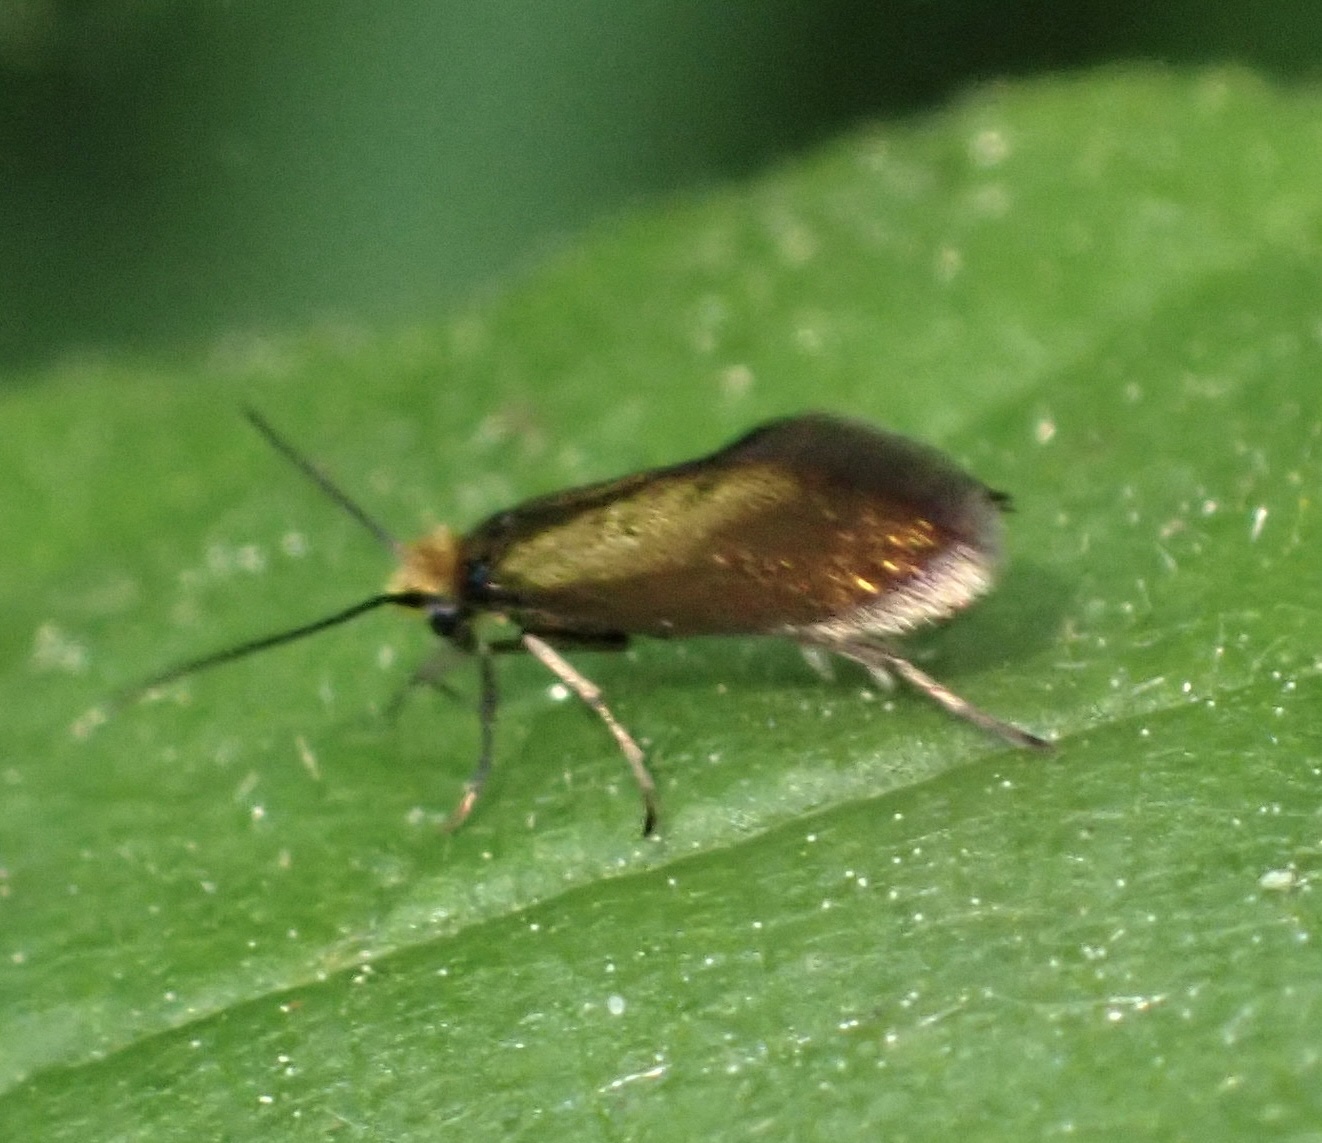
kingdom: Animalia
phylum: Arthropoda
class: Insecta
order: Lepidoptera
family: Micropterigidae
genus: Micropterix
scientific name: Micropterix aruncella
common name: White-barred gold
